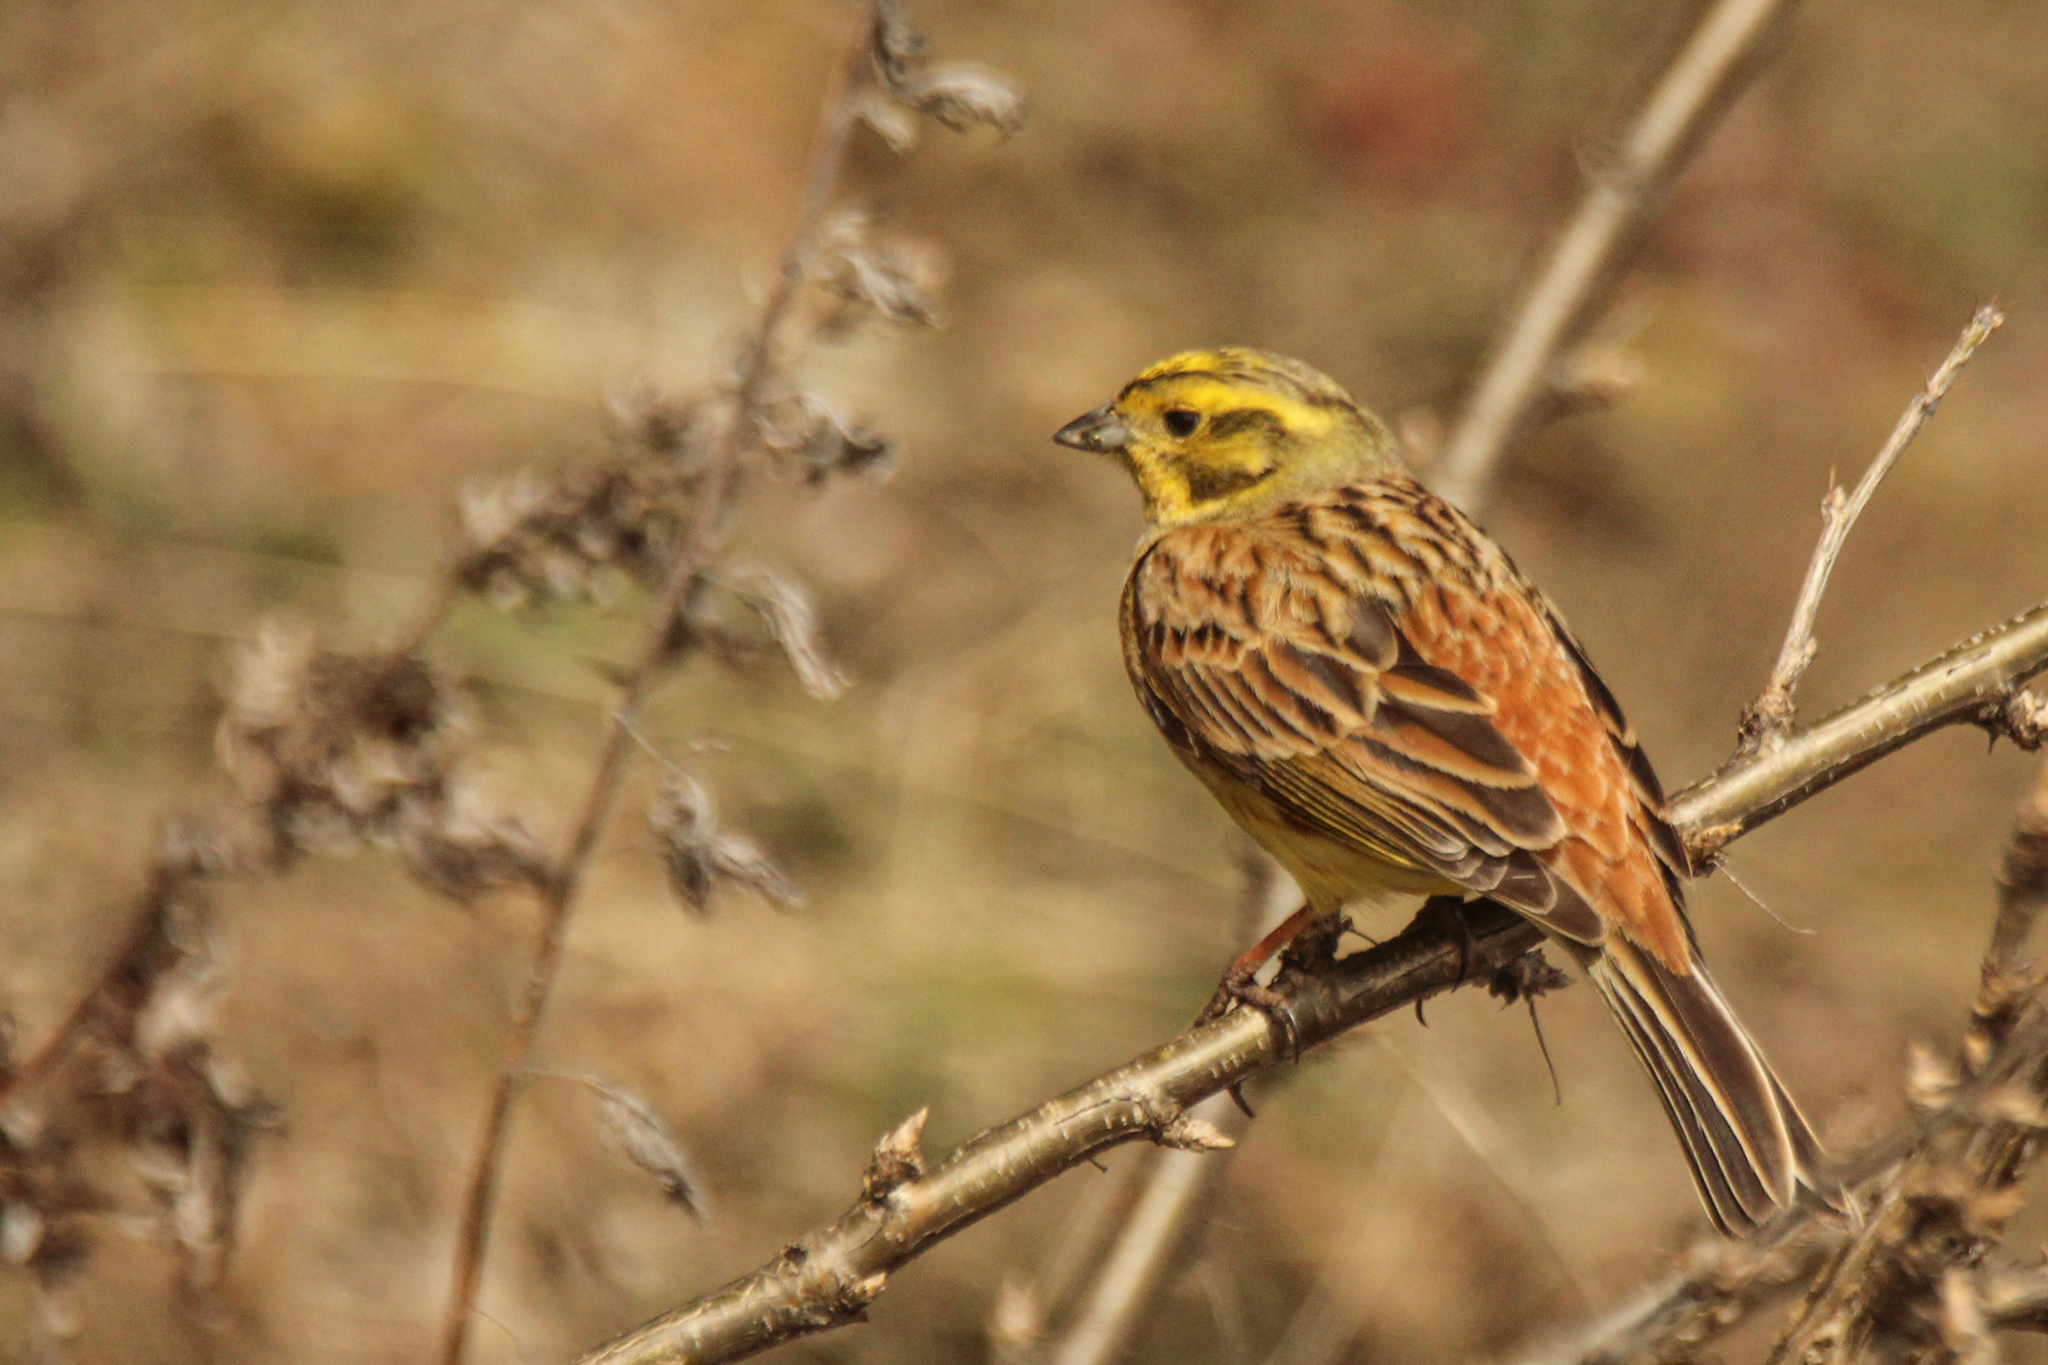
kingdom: Animalia
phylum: Chordata
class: Aves
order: Passeriformes
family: Emberizidae
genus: Emberiza
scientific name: Emberiza citrinella
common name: Yellowhammer
